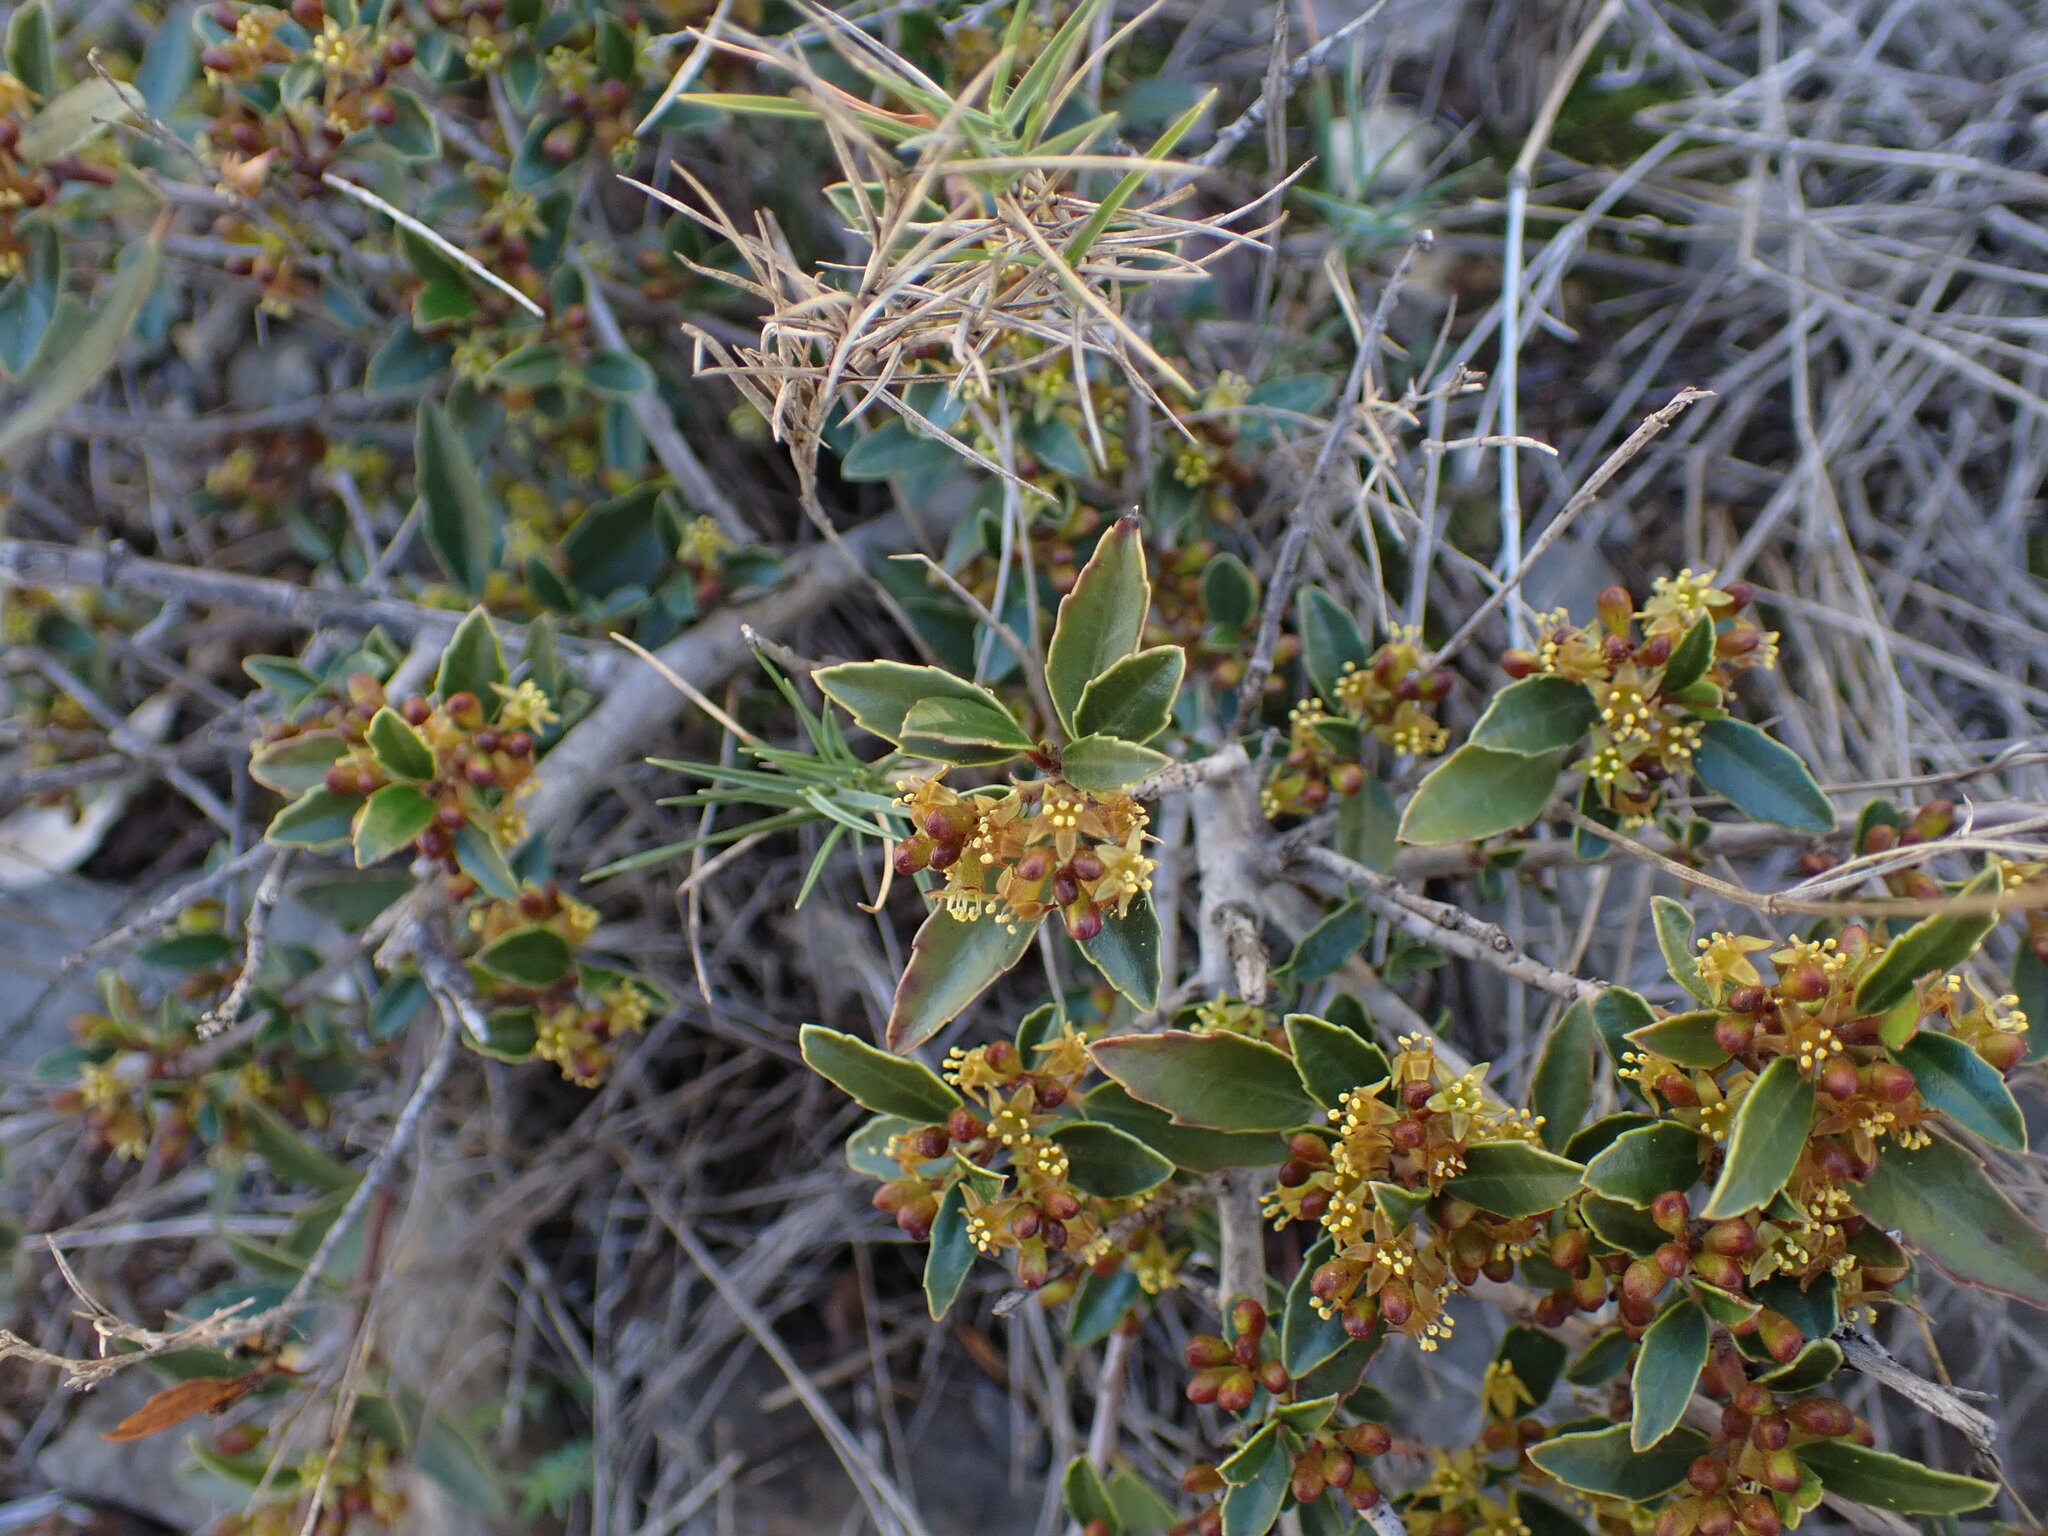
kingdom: Plantae
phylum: Tracheophyta
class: Magnoliopsida
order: Rosales
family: Rhamnaceae
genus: Rhamnus
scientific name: Rhamnus alaternus
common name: Mediterranean buckthorn
